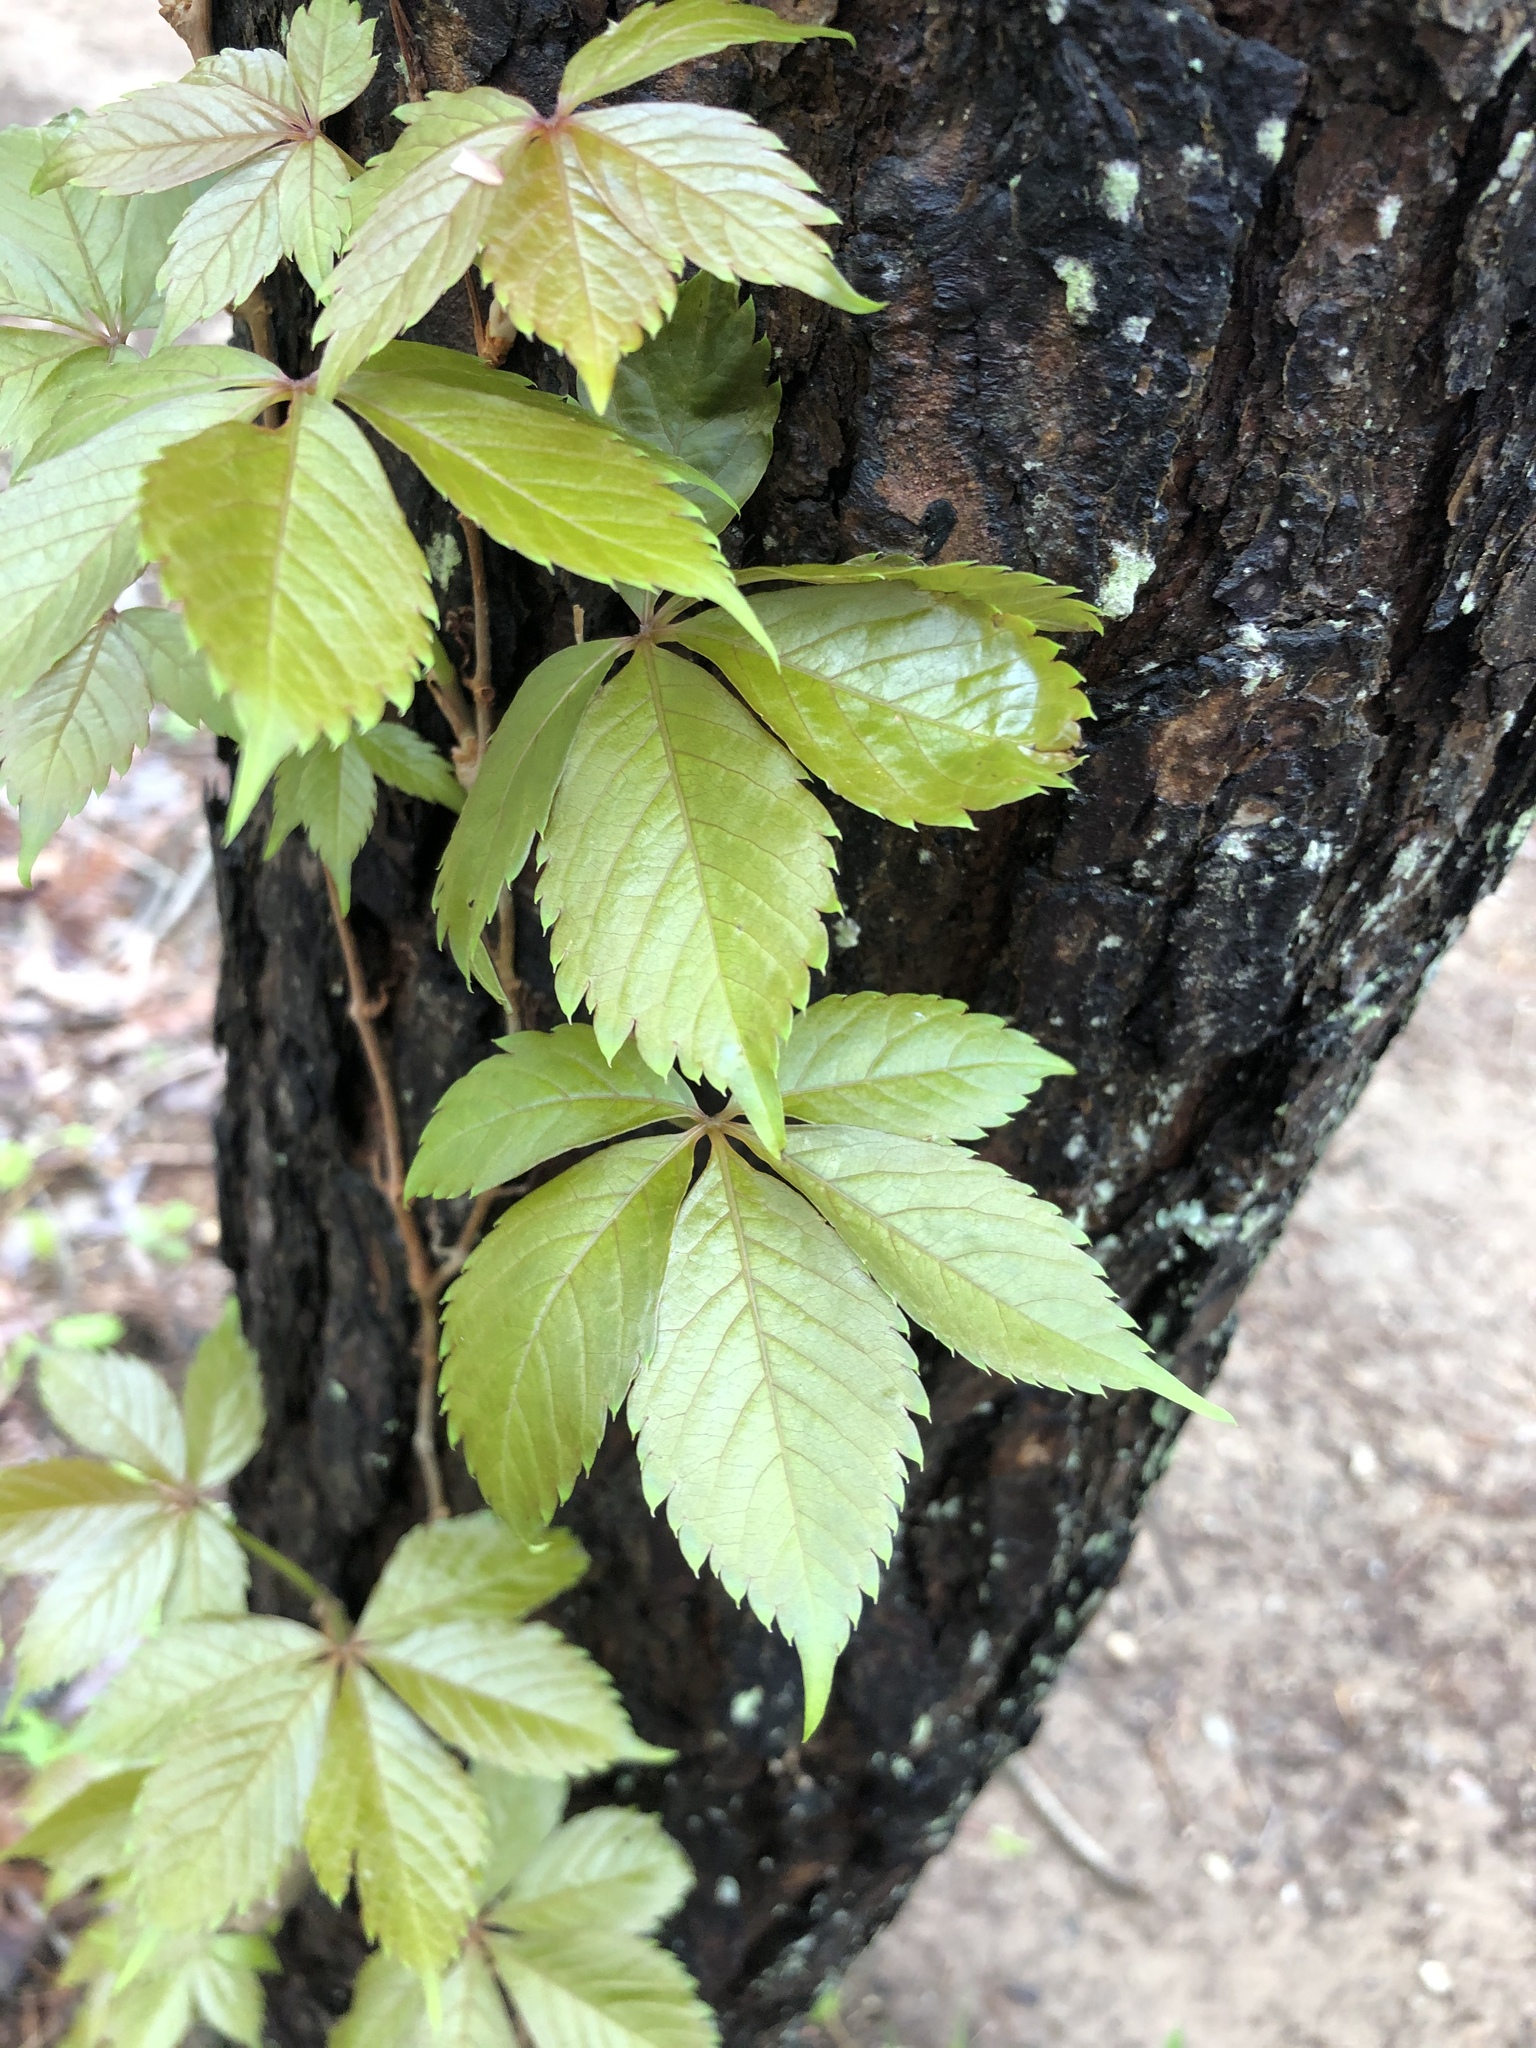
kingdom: Plantae
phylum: Tracheophyta
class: Magnoliopsida
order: Vitales
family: Vitaceae
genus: Parthenocissus
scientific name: Parthenocissus quinquefolia
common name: Virginia-creeper
